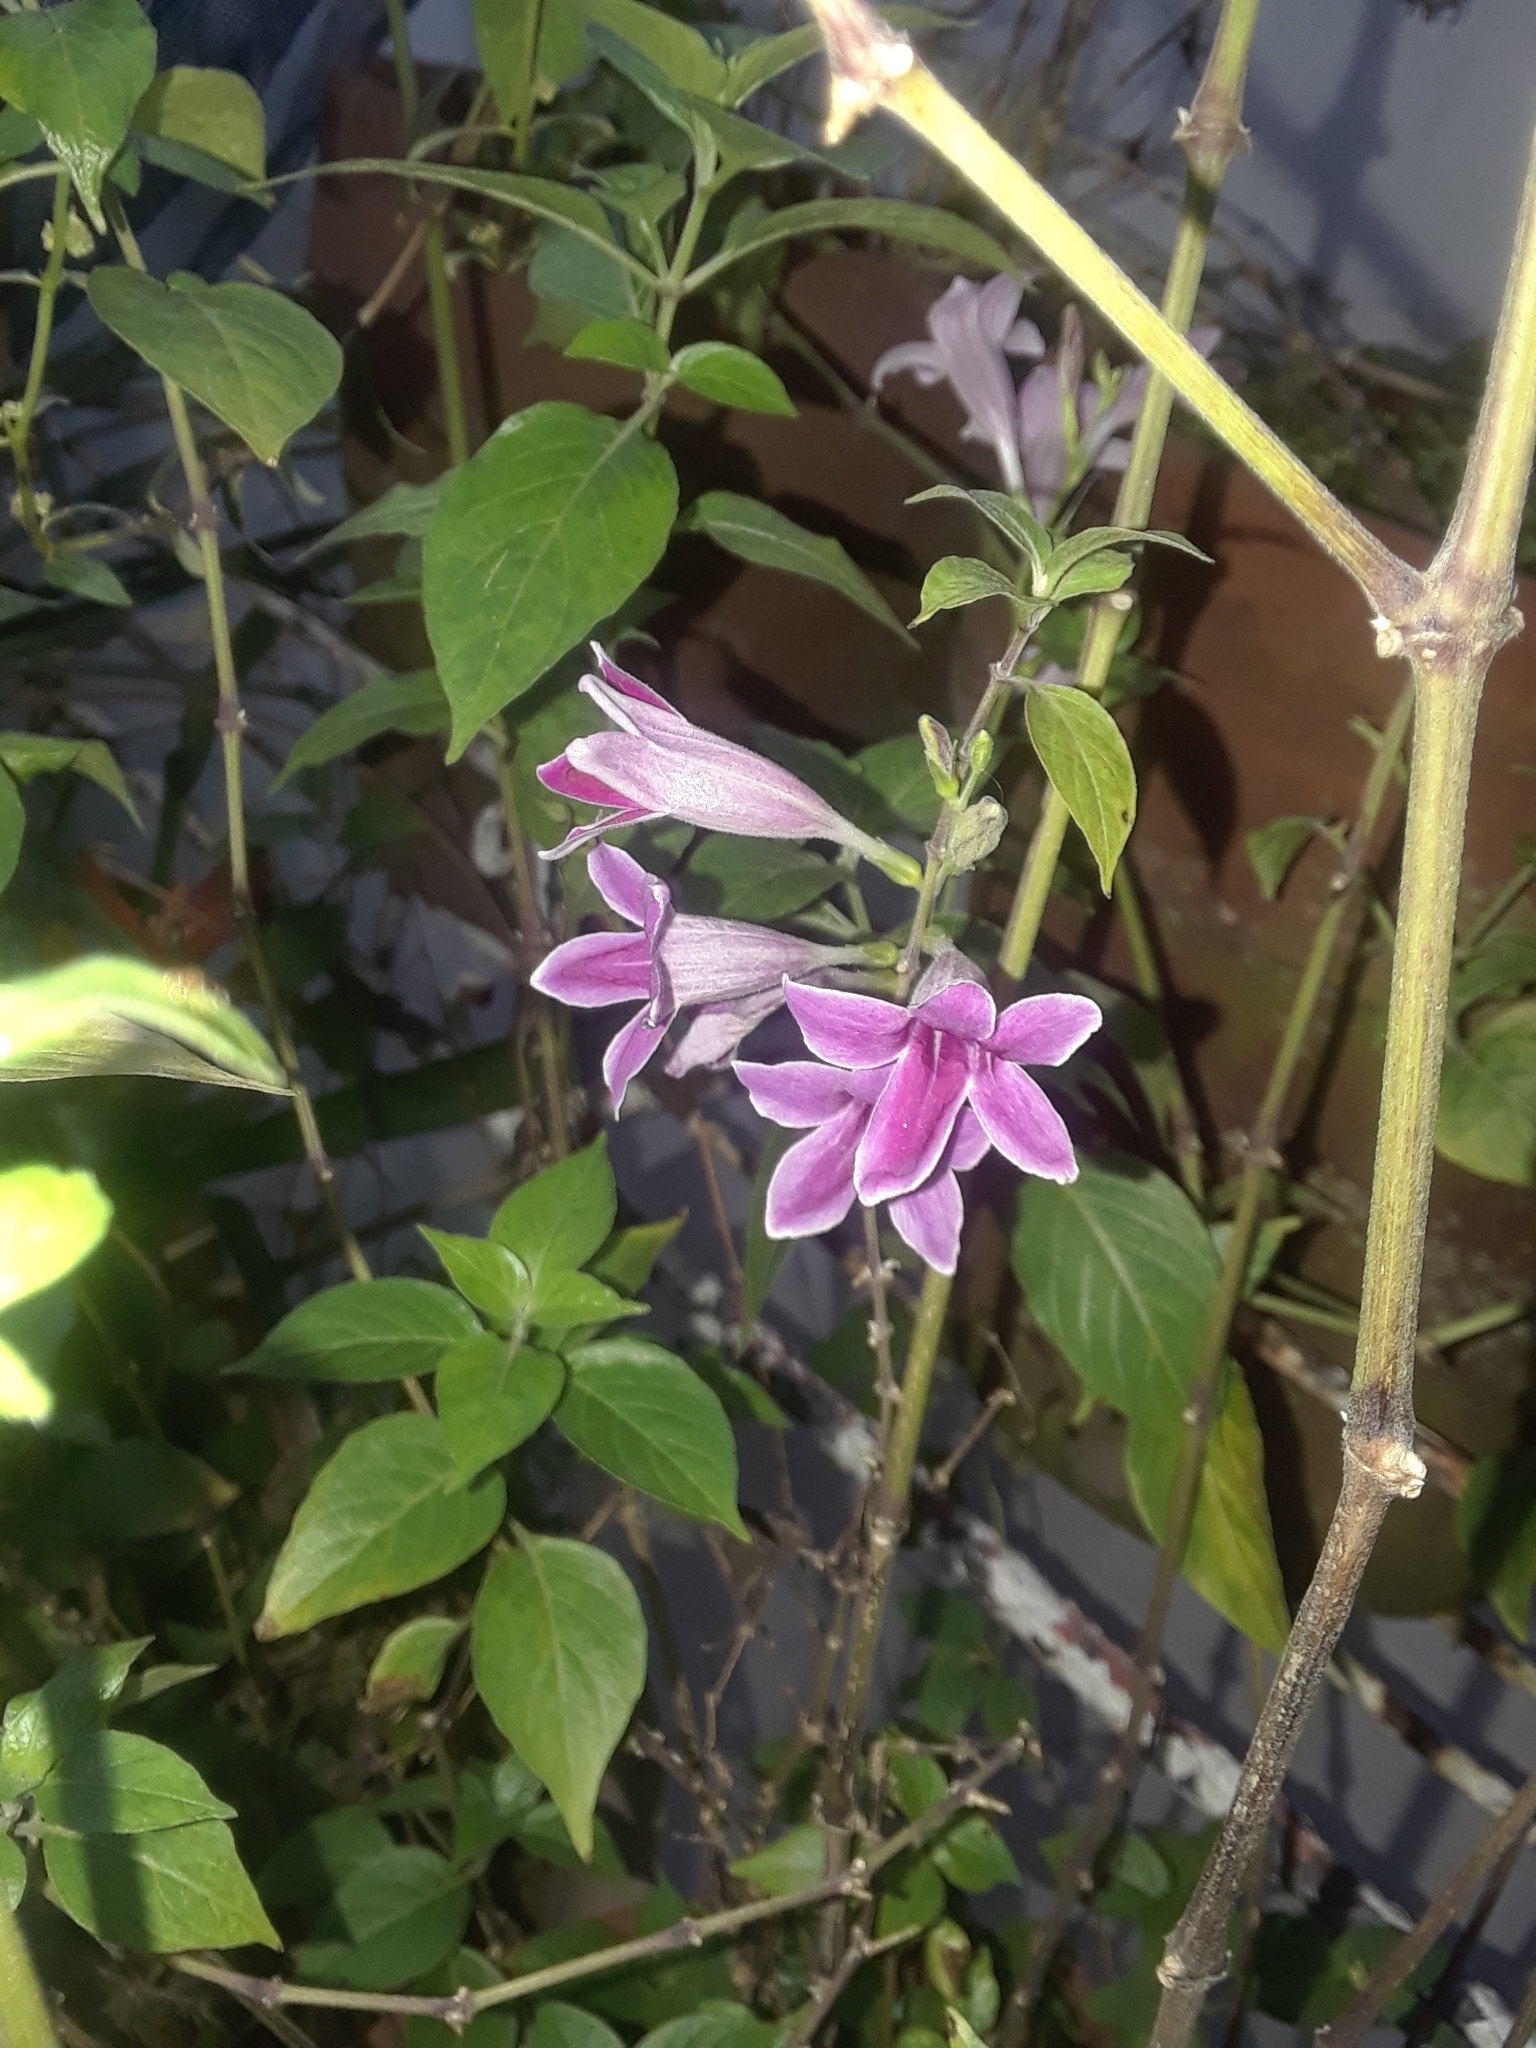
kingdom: Plantae
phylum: Tracheophyta
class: Magnoliopsida
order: Lamiales
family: Acanthaceae
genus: Asystasia
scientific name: Asystasia nemorum
